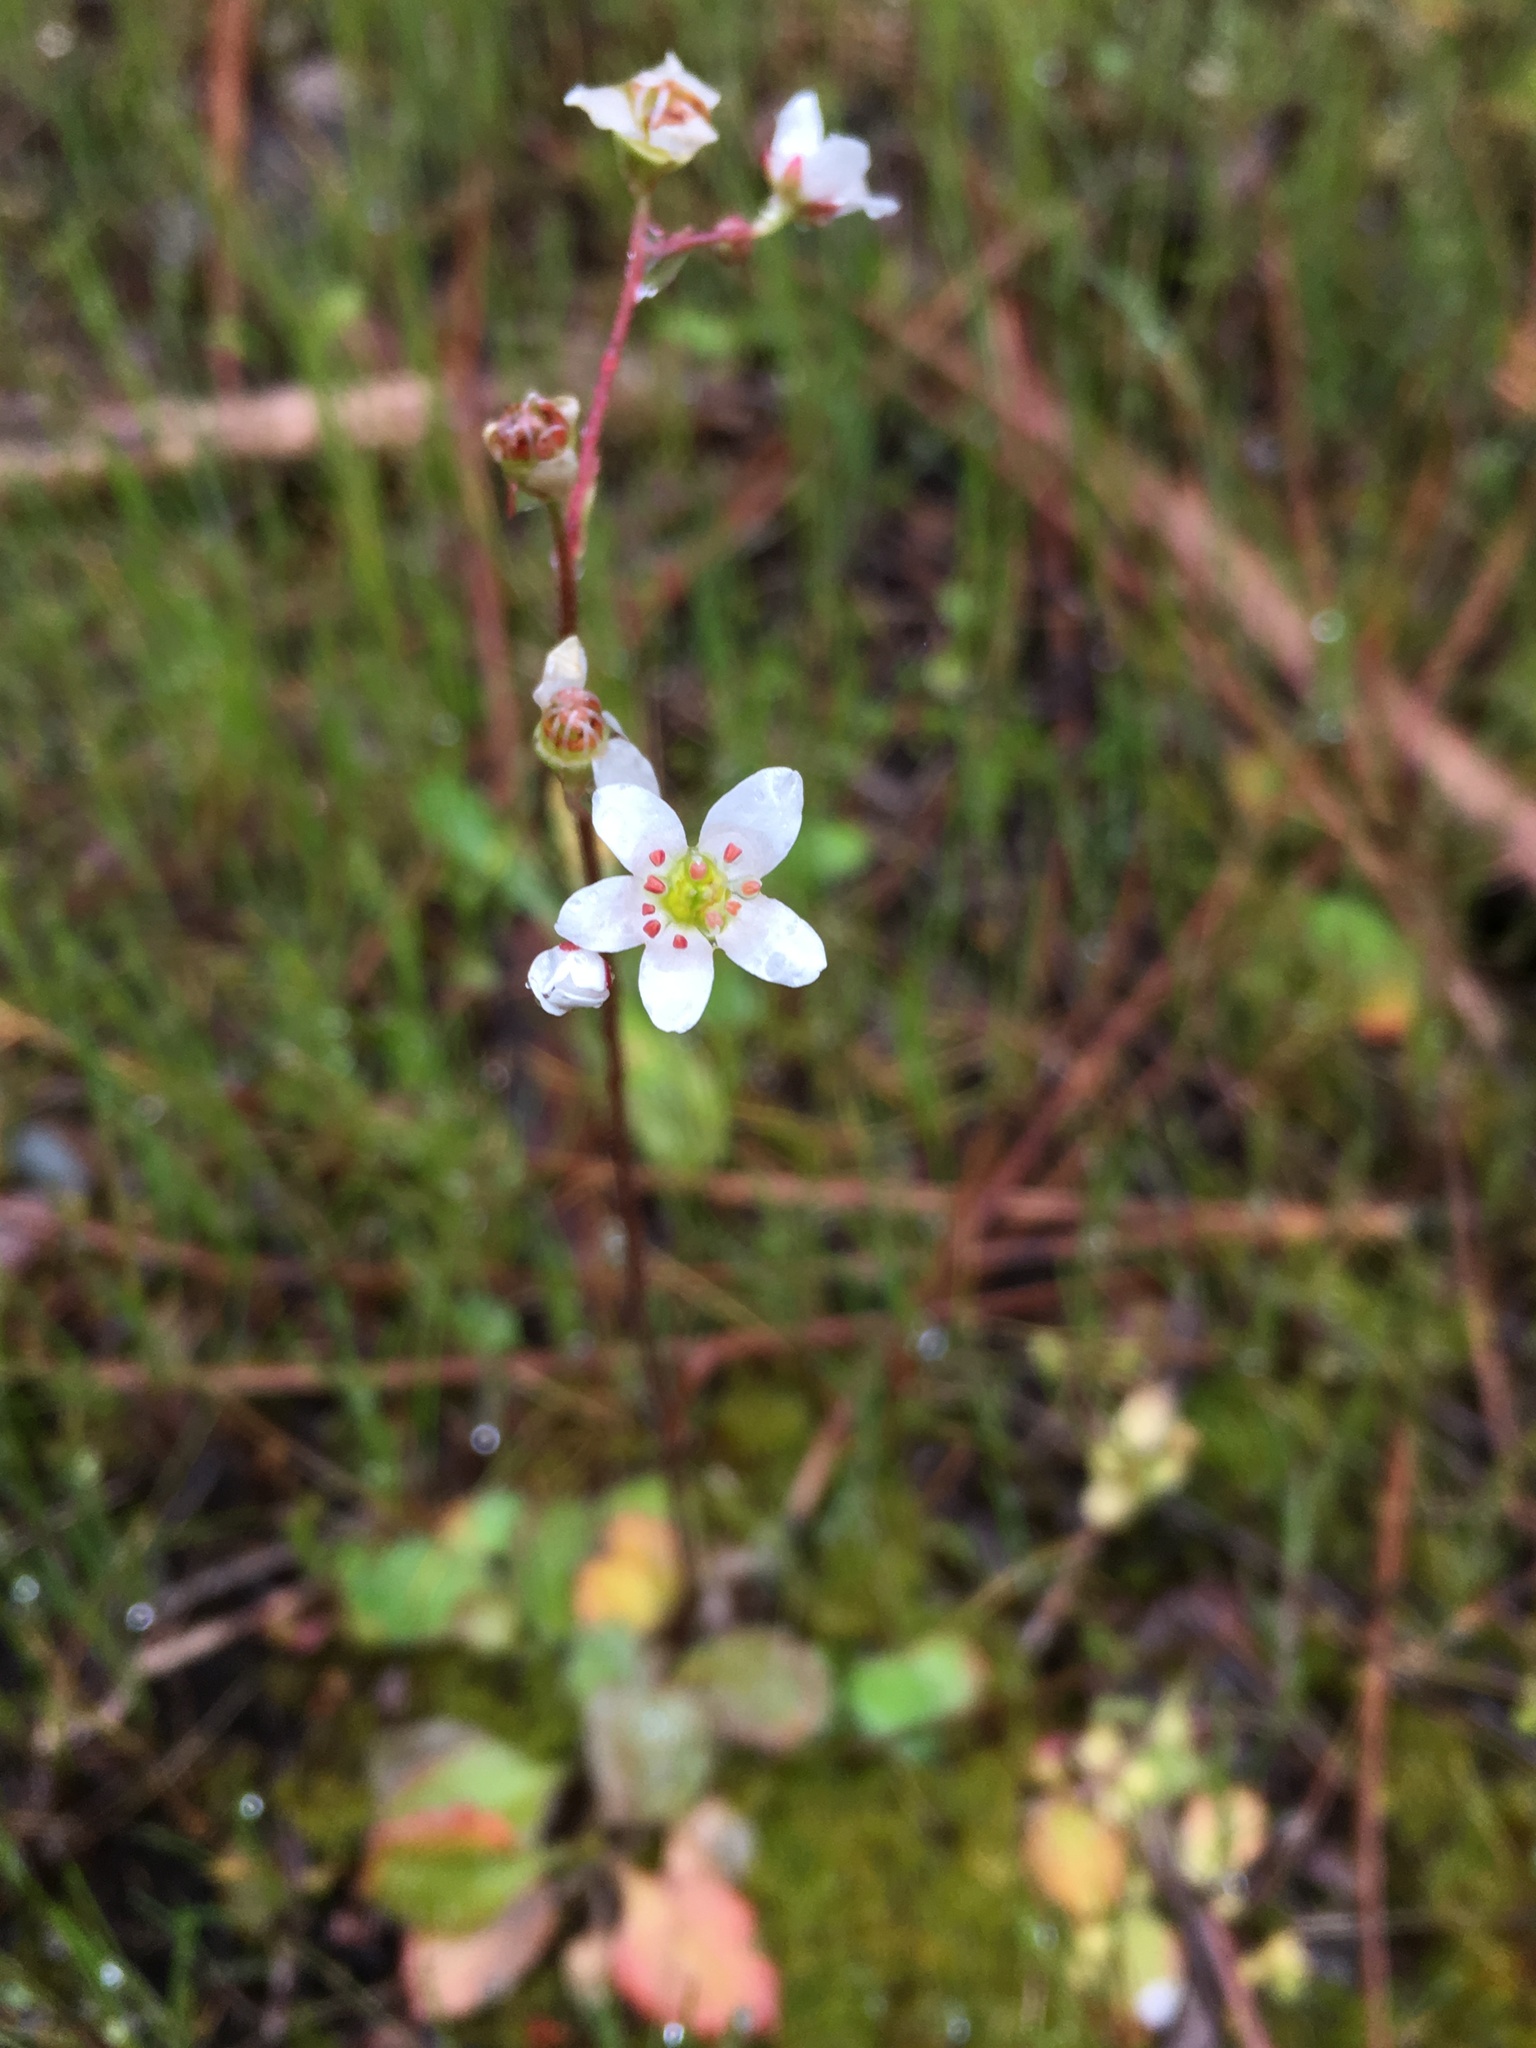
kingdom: Plantae
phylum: Tracheophyta
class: Magnoliopsida
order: Saxifragales
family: Saxifragaceae
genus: Micranthes
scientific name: Micranthes californica
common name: California saxifrage
